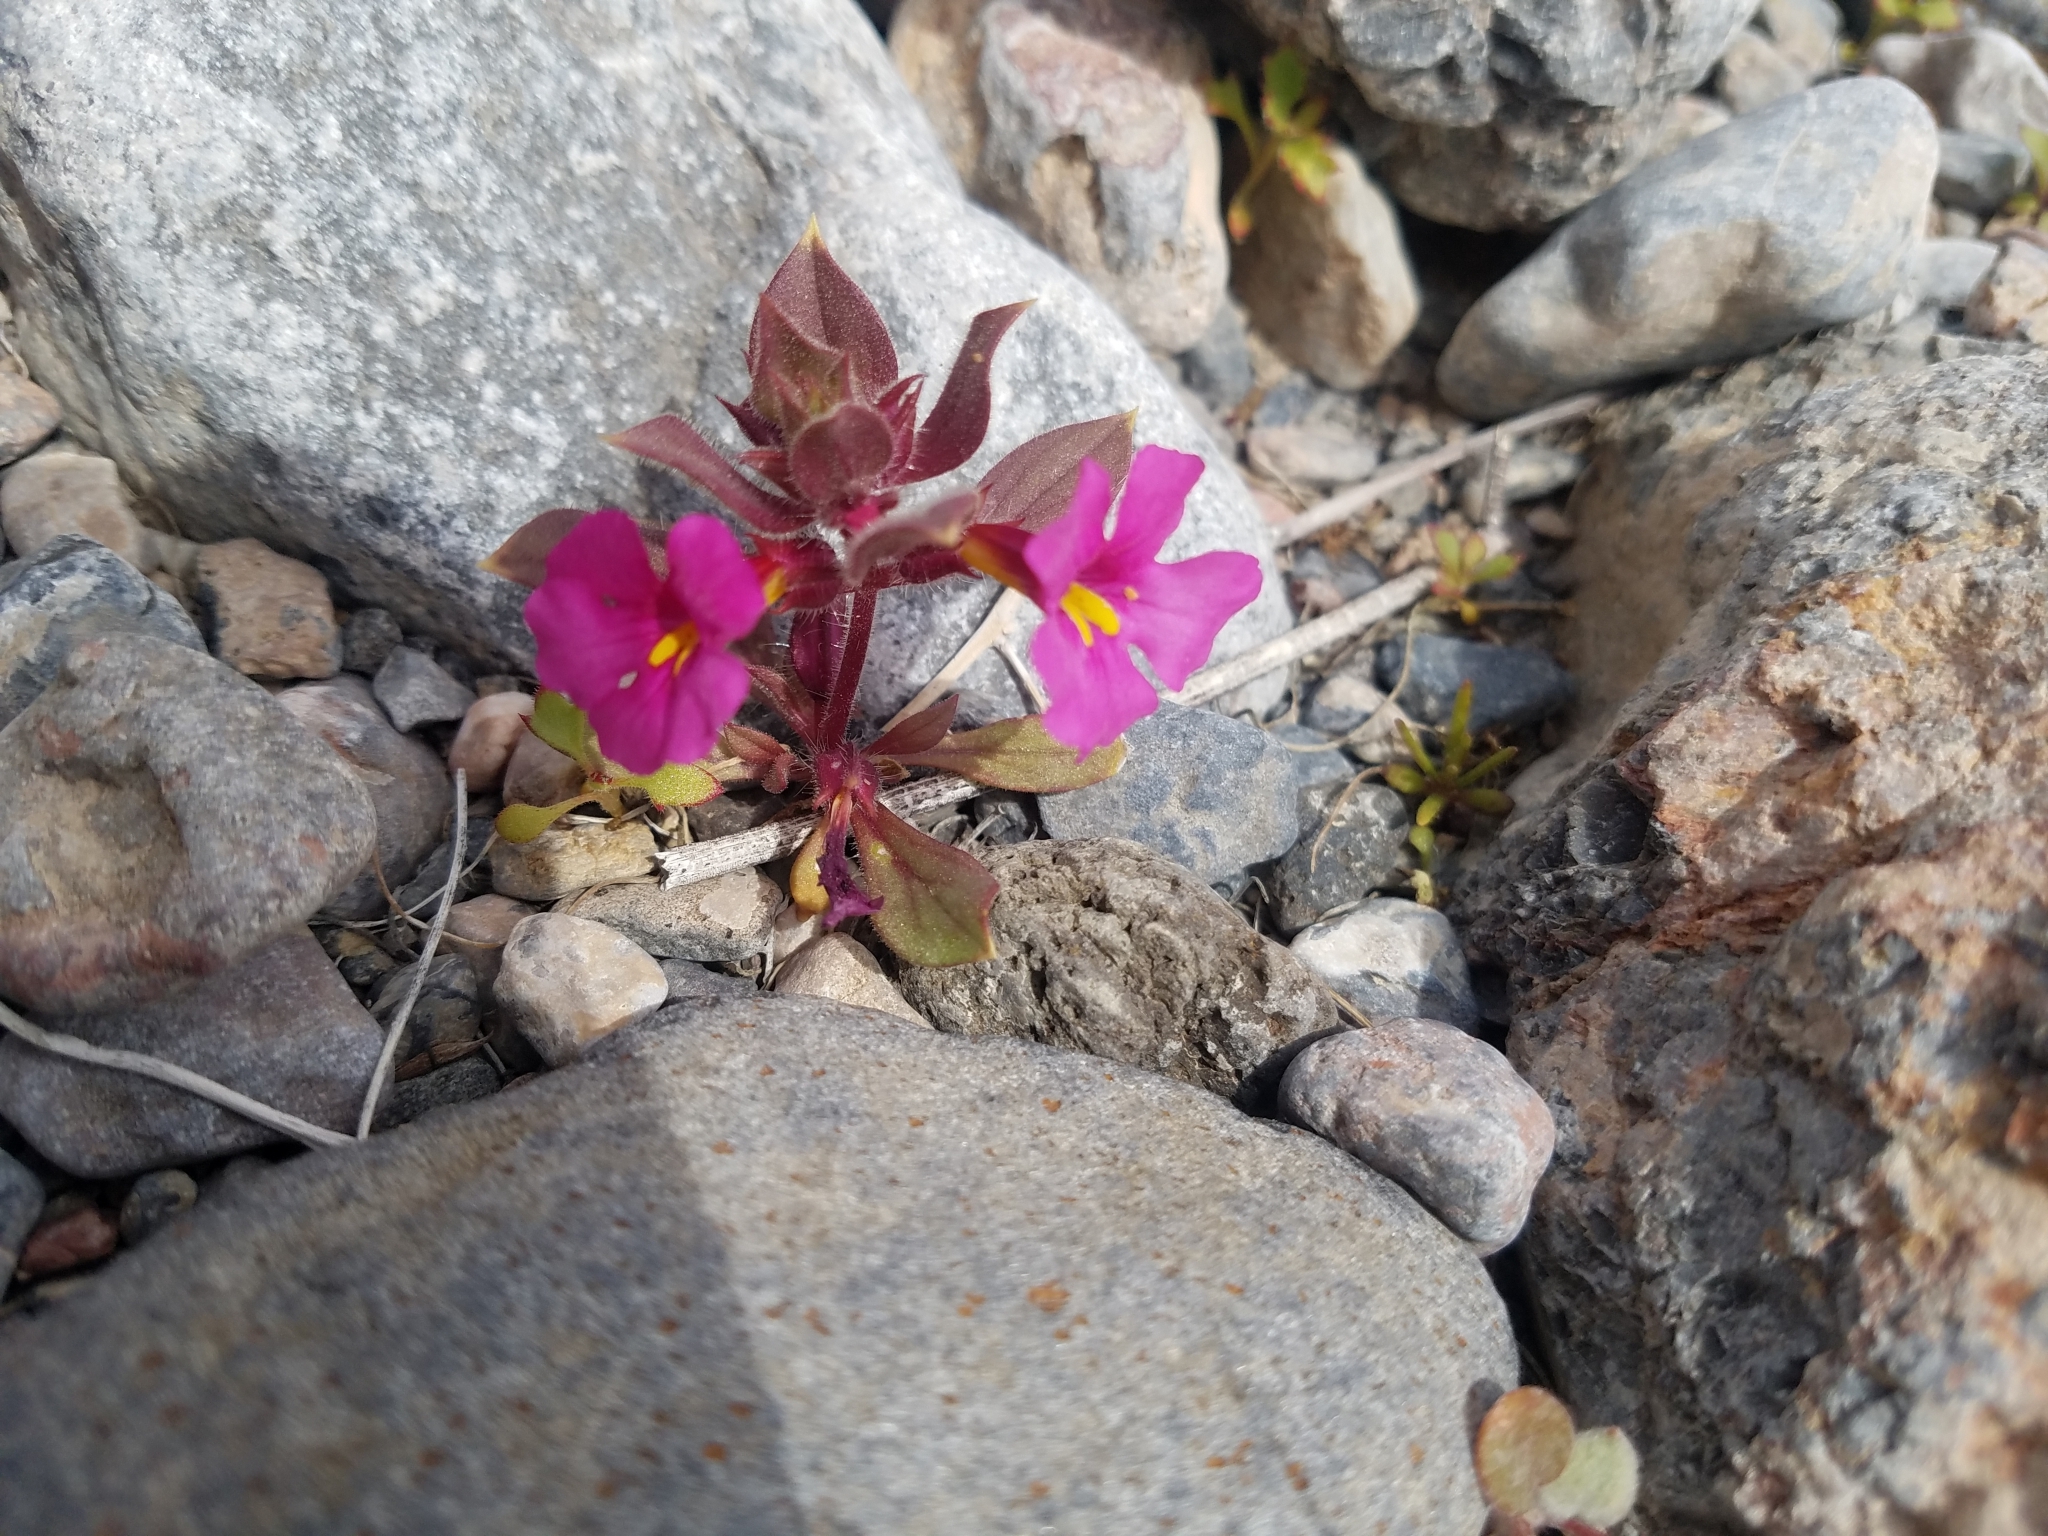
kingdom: Plantae
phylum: Tracheophyta
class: Magnoliopsida
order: Lamiales
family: Phrymaceae
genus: Diplacus
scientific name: Diplacus bigelovii
